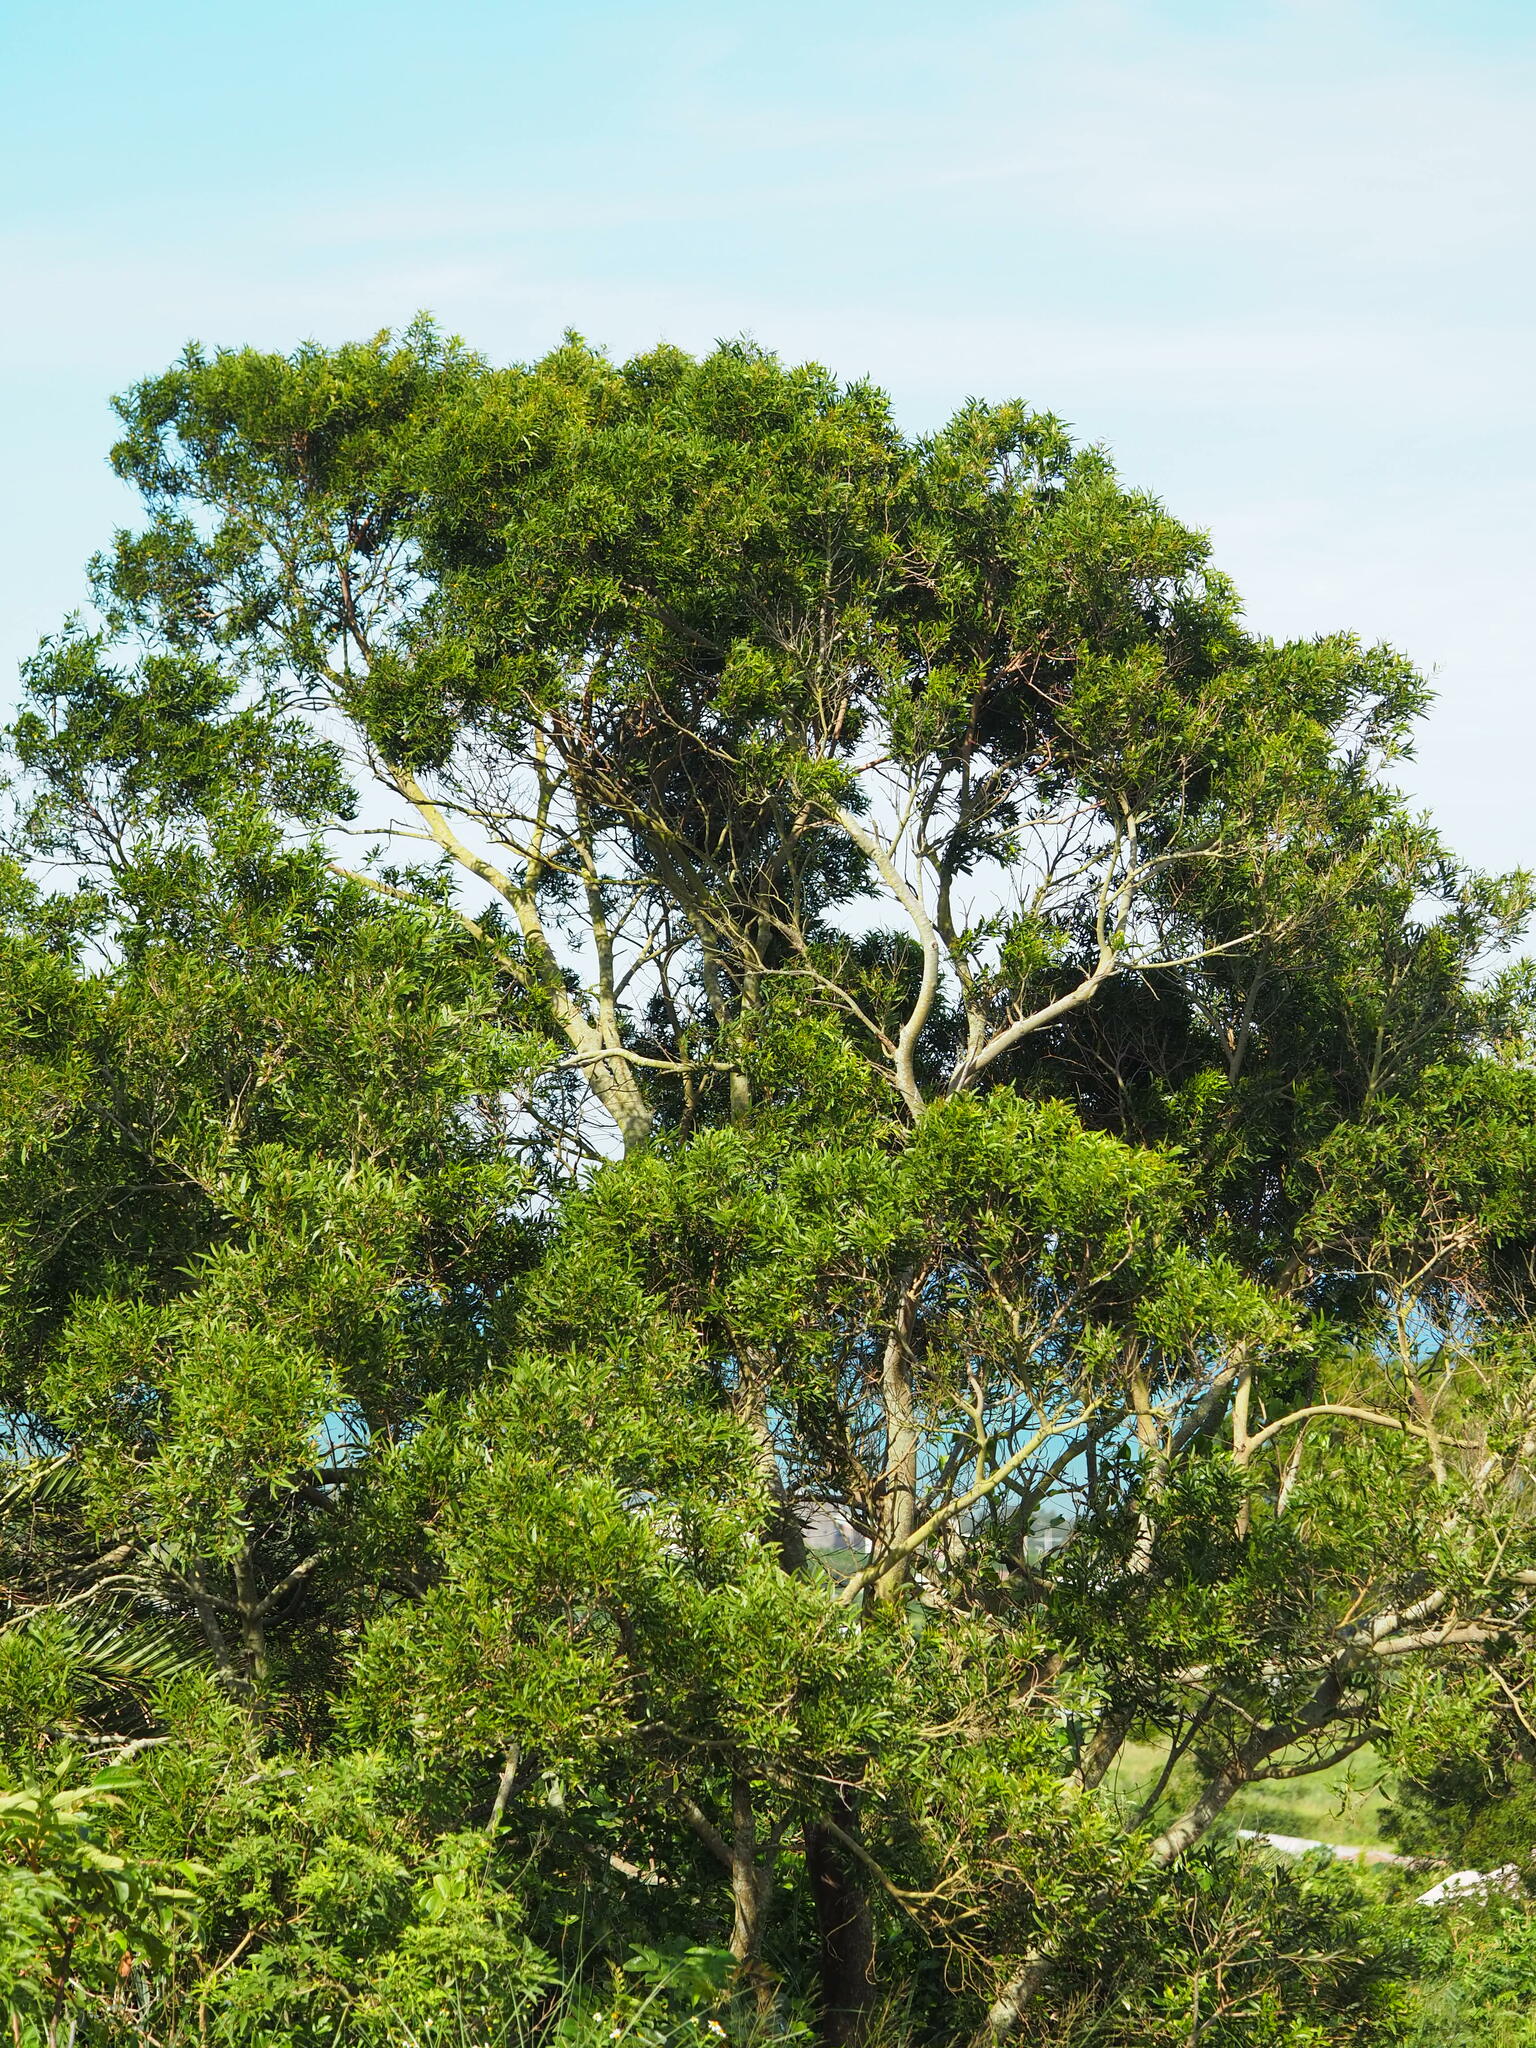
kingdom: Plantae
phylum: Tracheophyta
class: Magnoliopsida
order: Fabales
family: Fabaceae
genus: Acacia
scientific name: Acacia confusa
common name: Formosan koa
